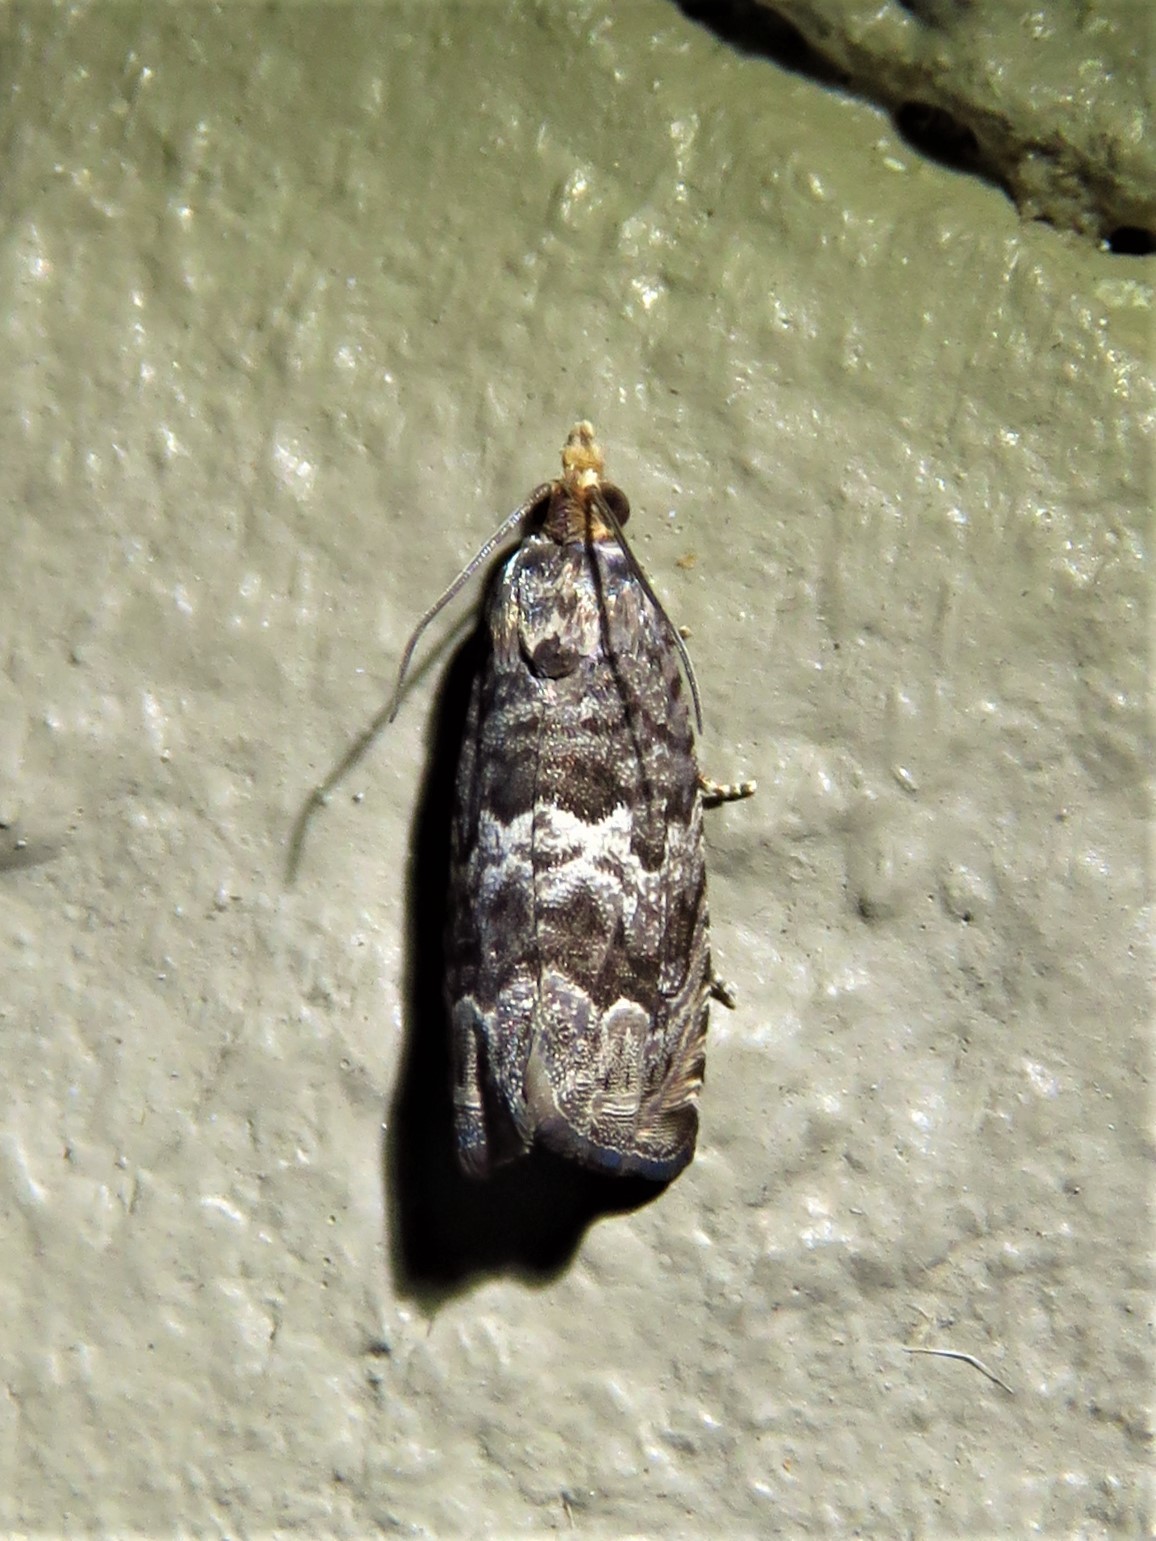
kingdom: Animalia
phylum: Arthropoda
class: Insecta
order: Lepidoptera
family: Tortricidae
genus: Cydia
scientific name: Cydia membrosa
